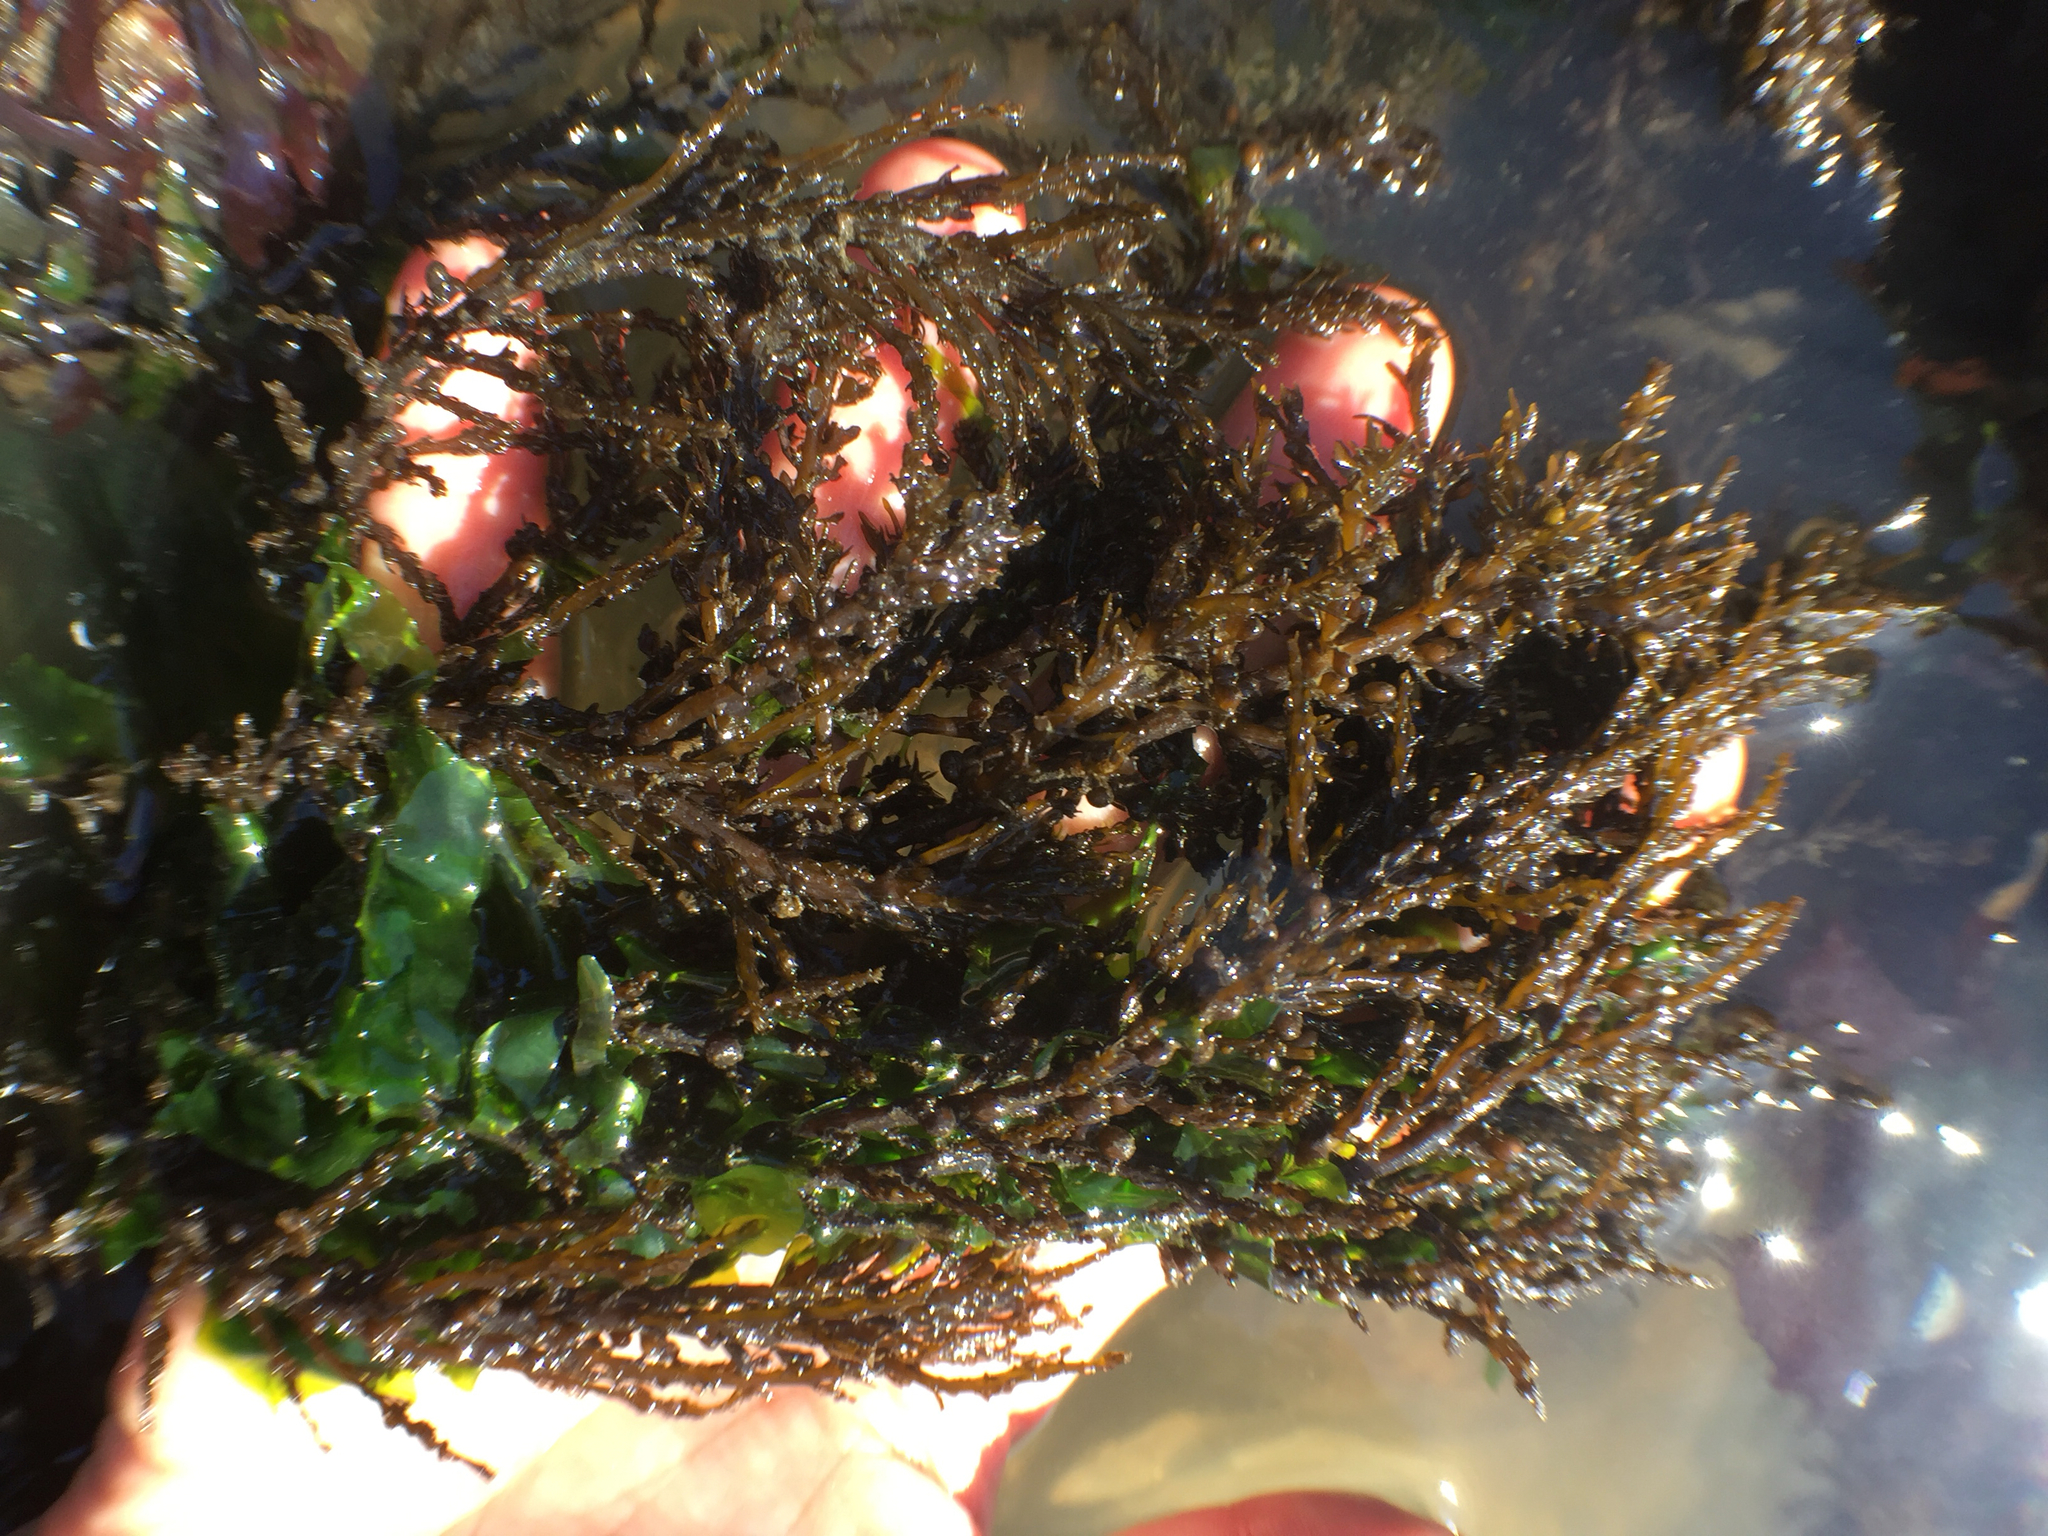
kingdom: Chromista
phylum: Ochrophyta
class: Phaeophyceae
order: Fucales
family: Sargassaceae
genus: Sargassum
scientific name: Sargassum muticum
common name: Japweed
